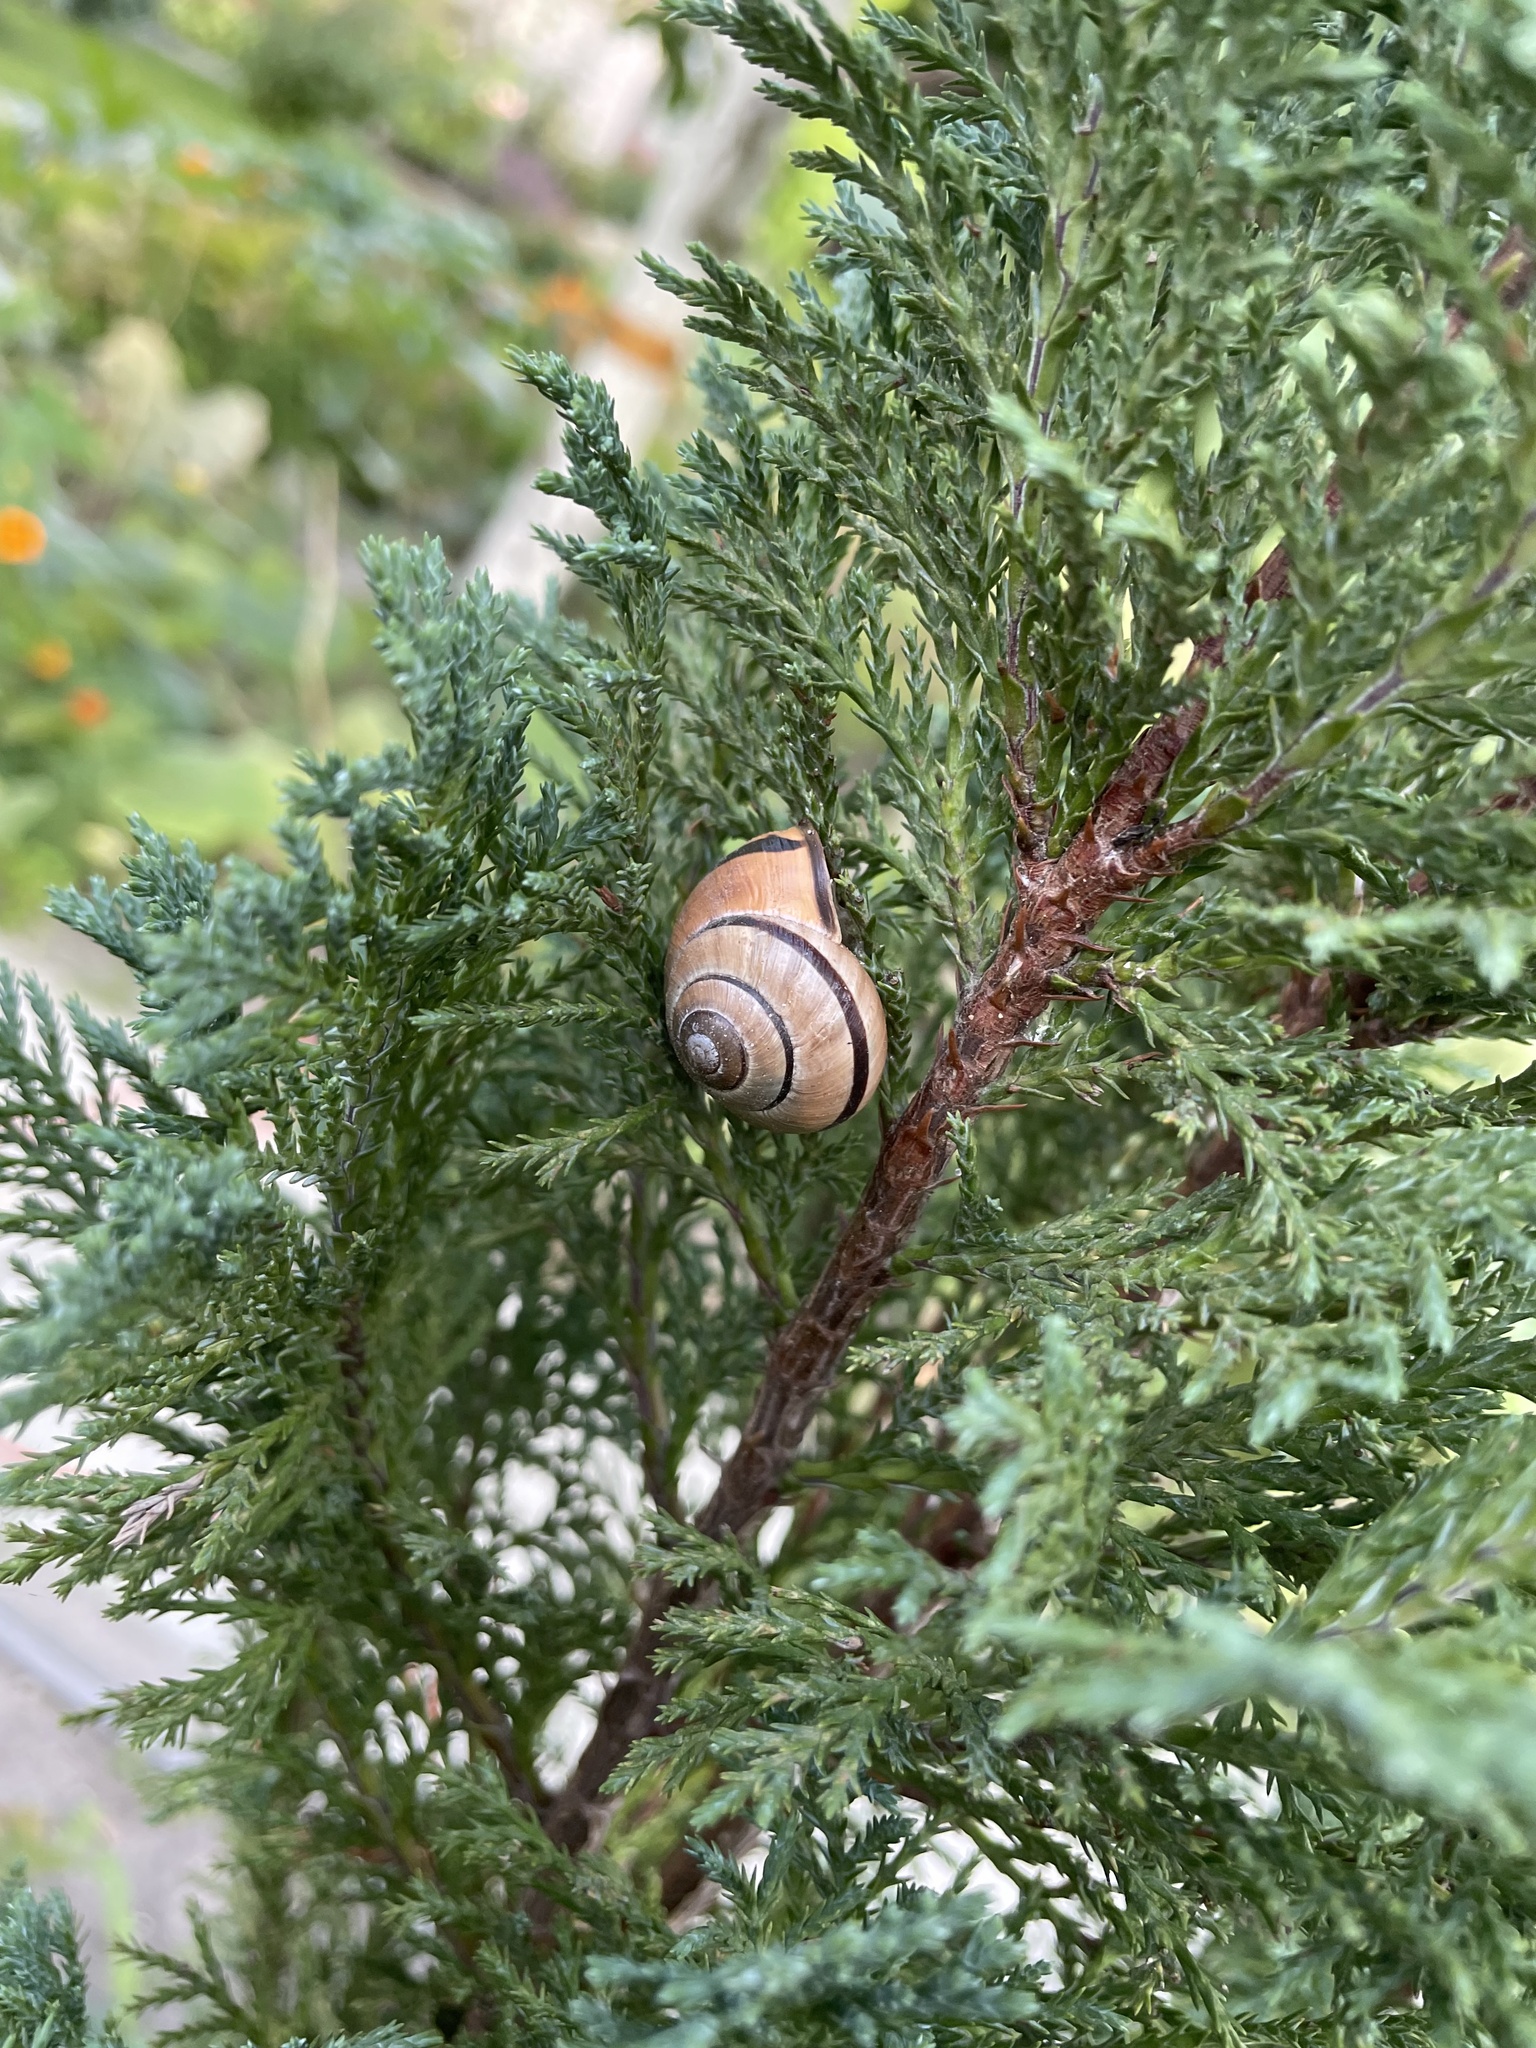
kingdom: Animalia
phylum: Mollusca
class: Gastropoda
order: Stylommatophora
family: Helicidae
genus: Cepaea
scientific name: Cepaea nemoralis
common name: Grovesnail
